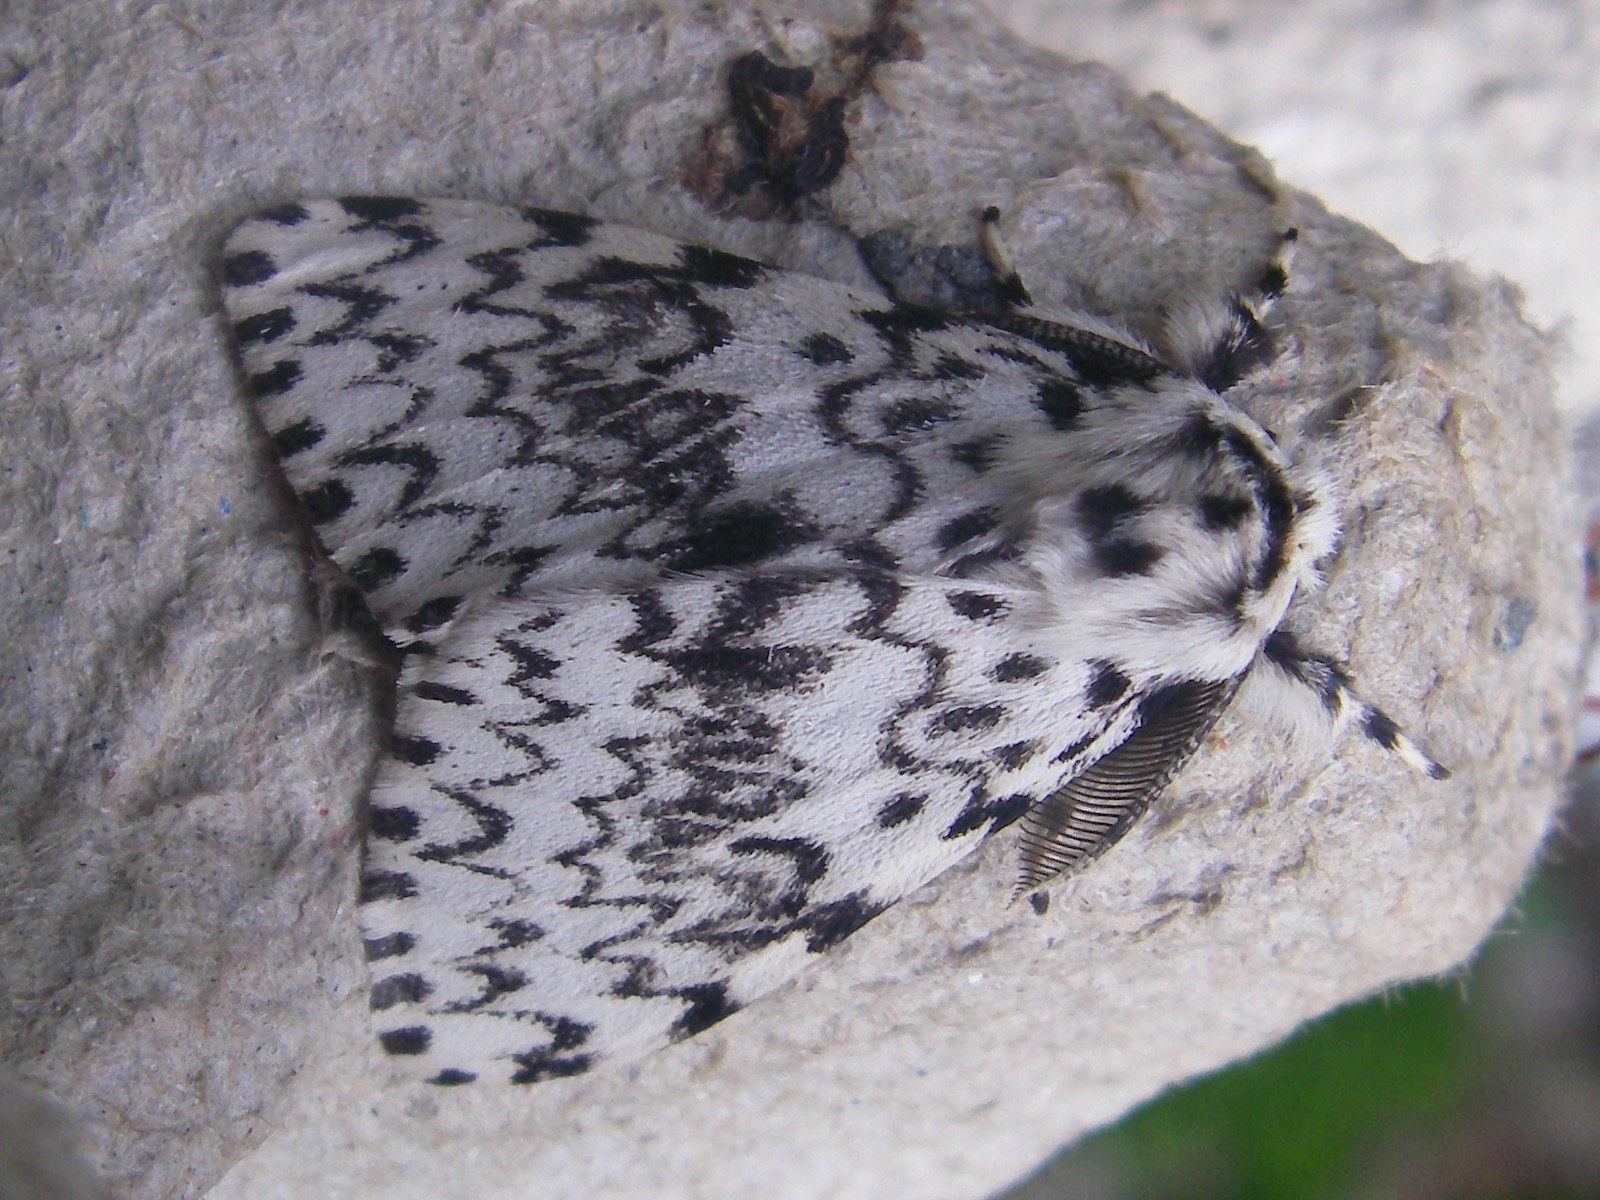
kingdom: Animalia
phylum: Arthropoda
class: Insecta
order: Lepidoptera
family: Erebidae
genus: Lymantria
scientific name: Lymantria monacha
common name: Black arches
